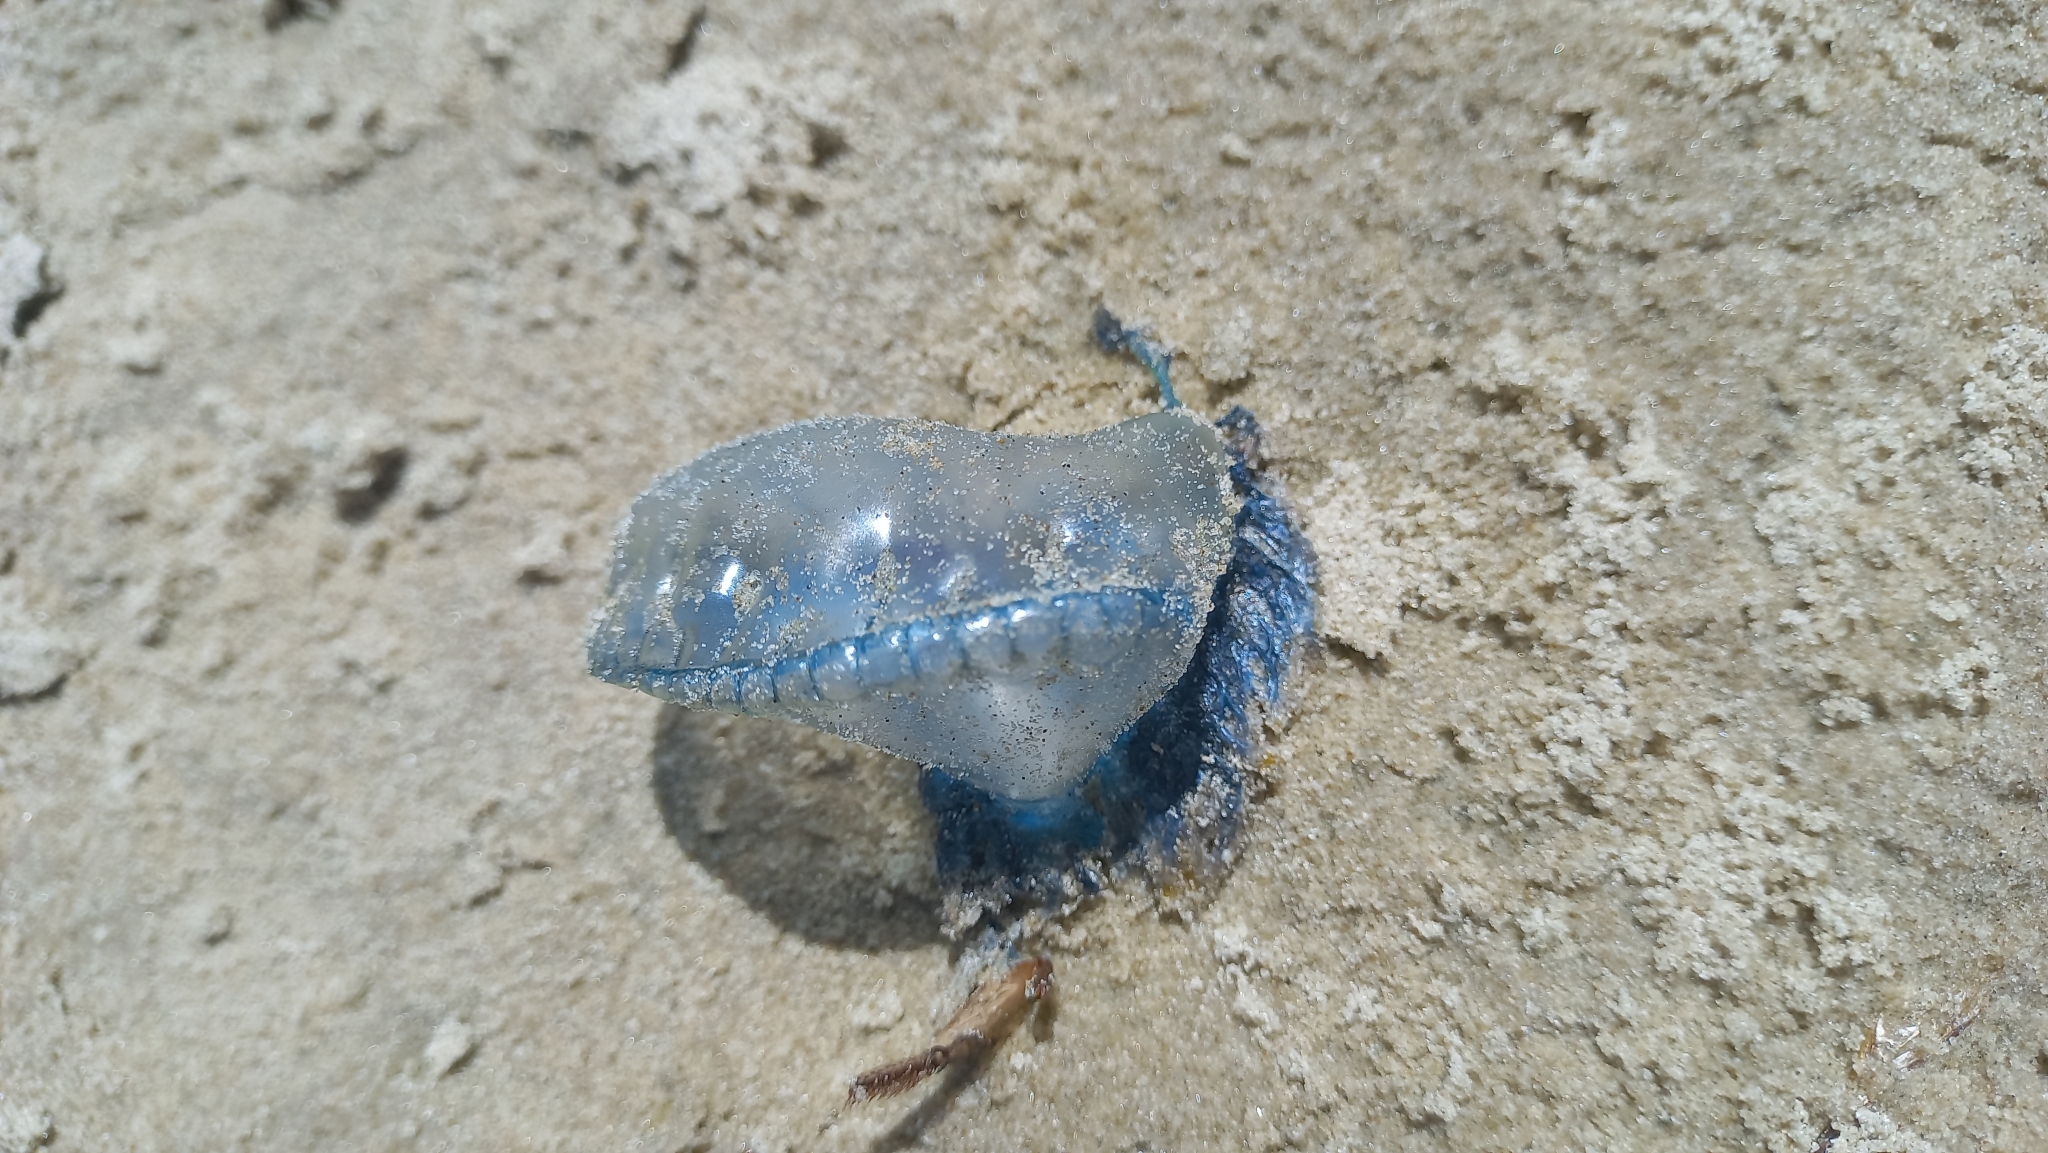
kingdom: Animalia
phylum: Cnidaria
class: Hydrozoa
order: Siphonophorae
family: Physaliidae
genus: Physalia
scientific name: Physalia physalis
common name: Portuguese man-of-war
